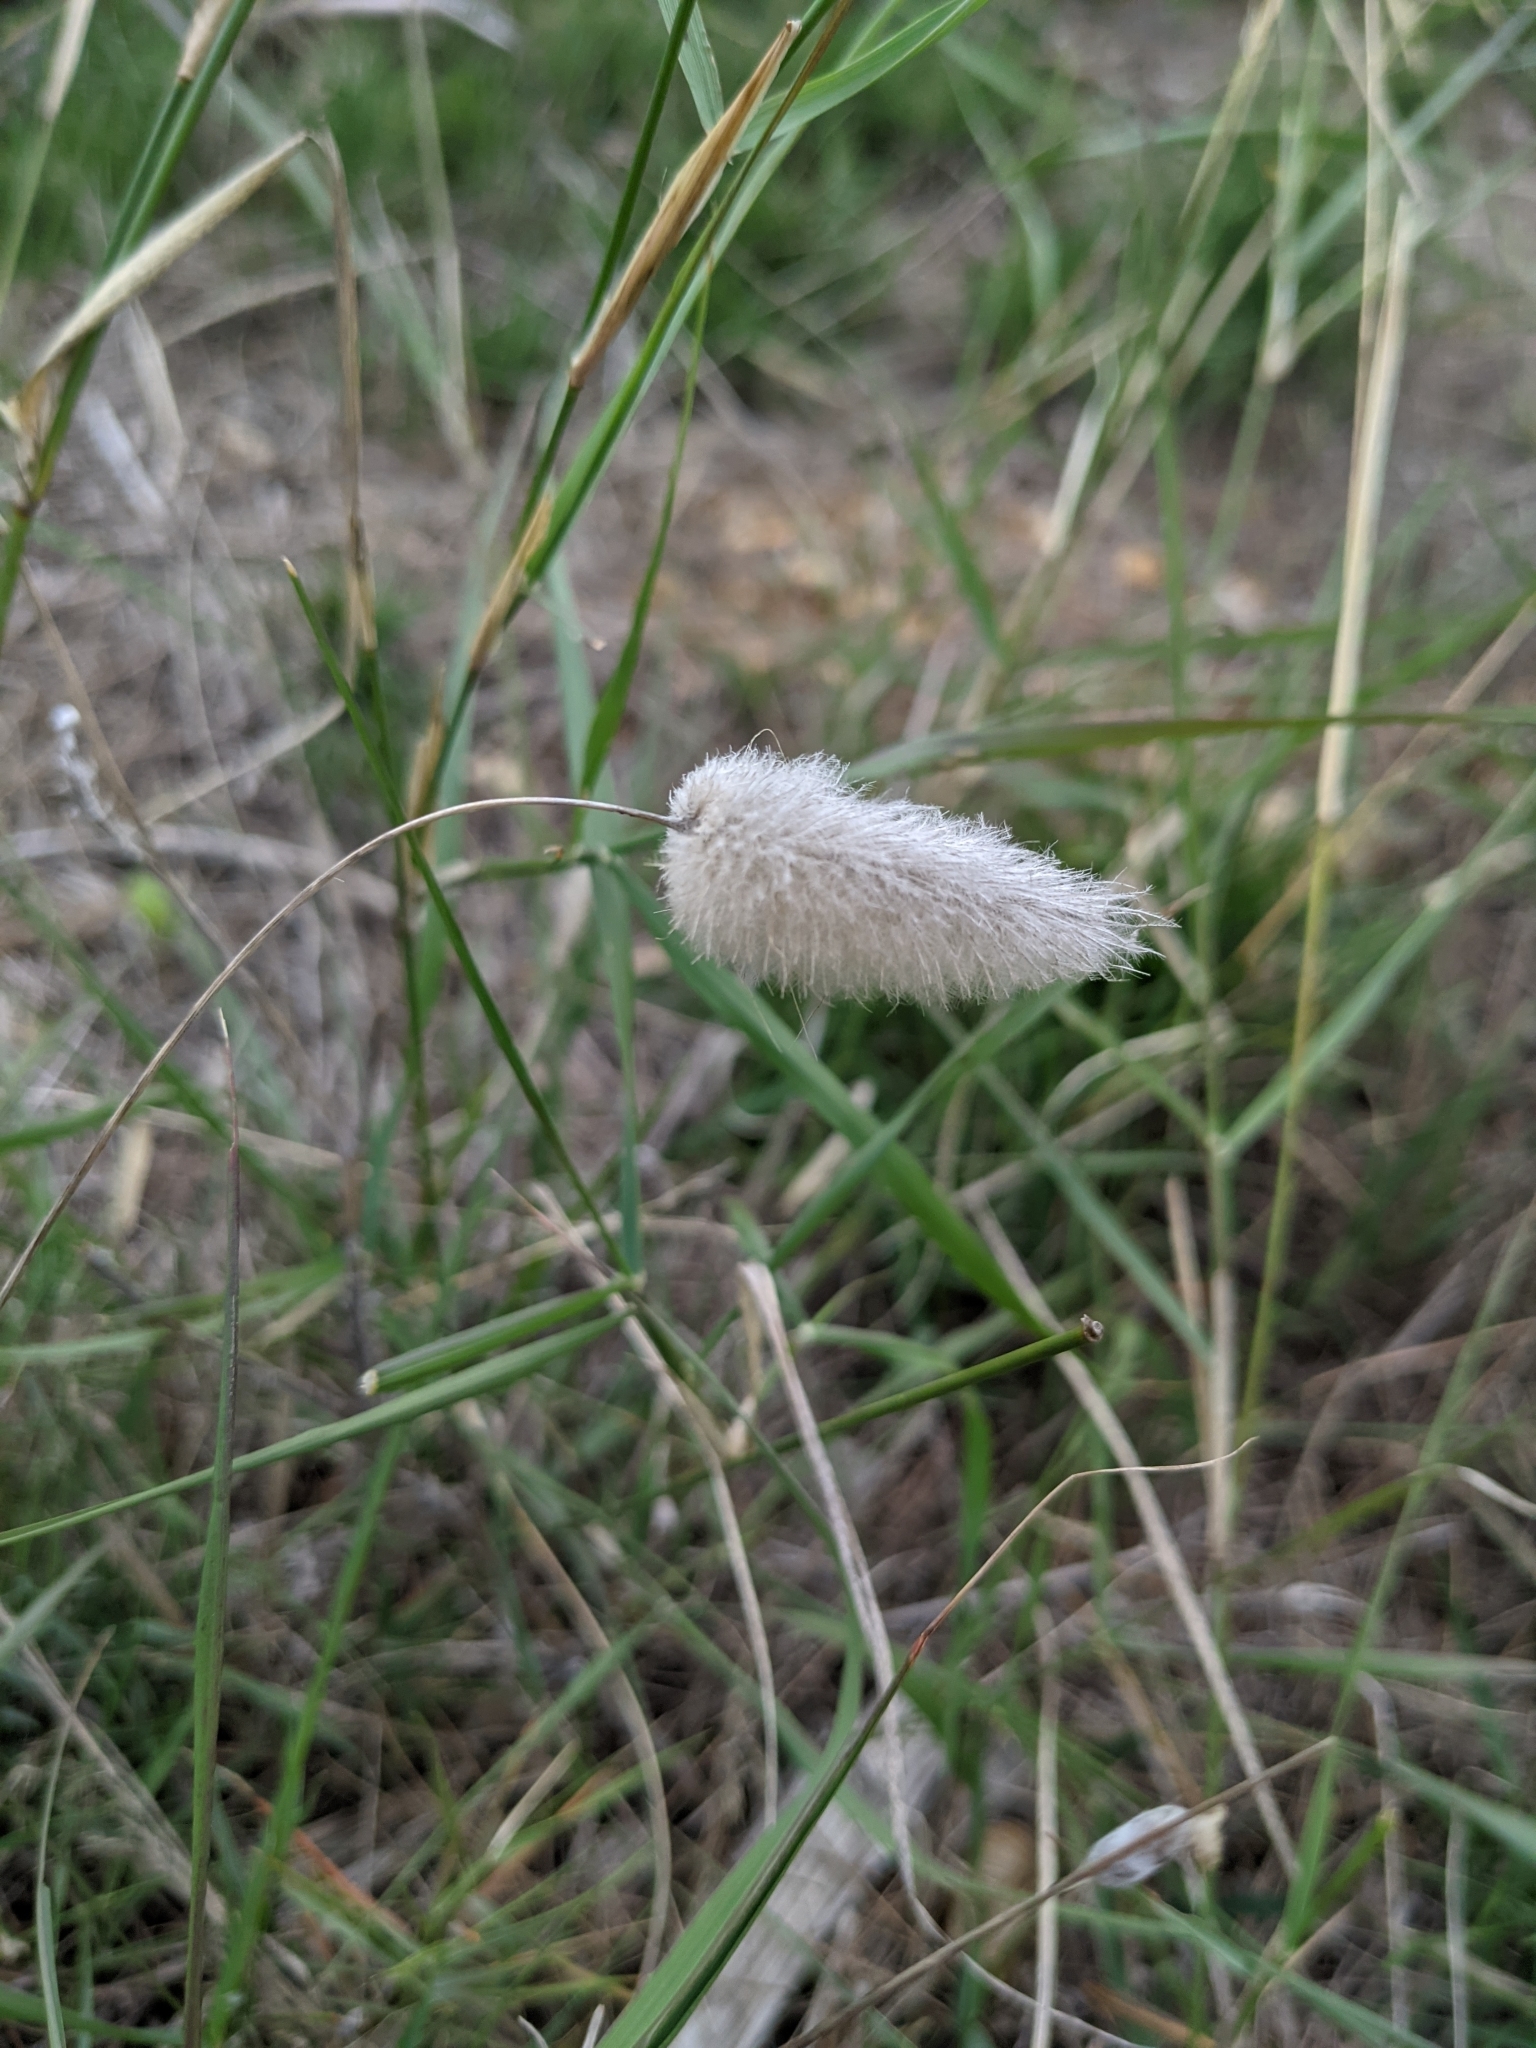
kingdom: Plantae
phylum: Tracheophyta
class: Liliopsida
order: Poales
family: Poaceae
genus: Lagurus
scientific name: Lagurus ovatus
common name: Hare's-tail
